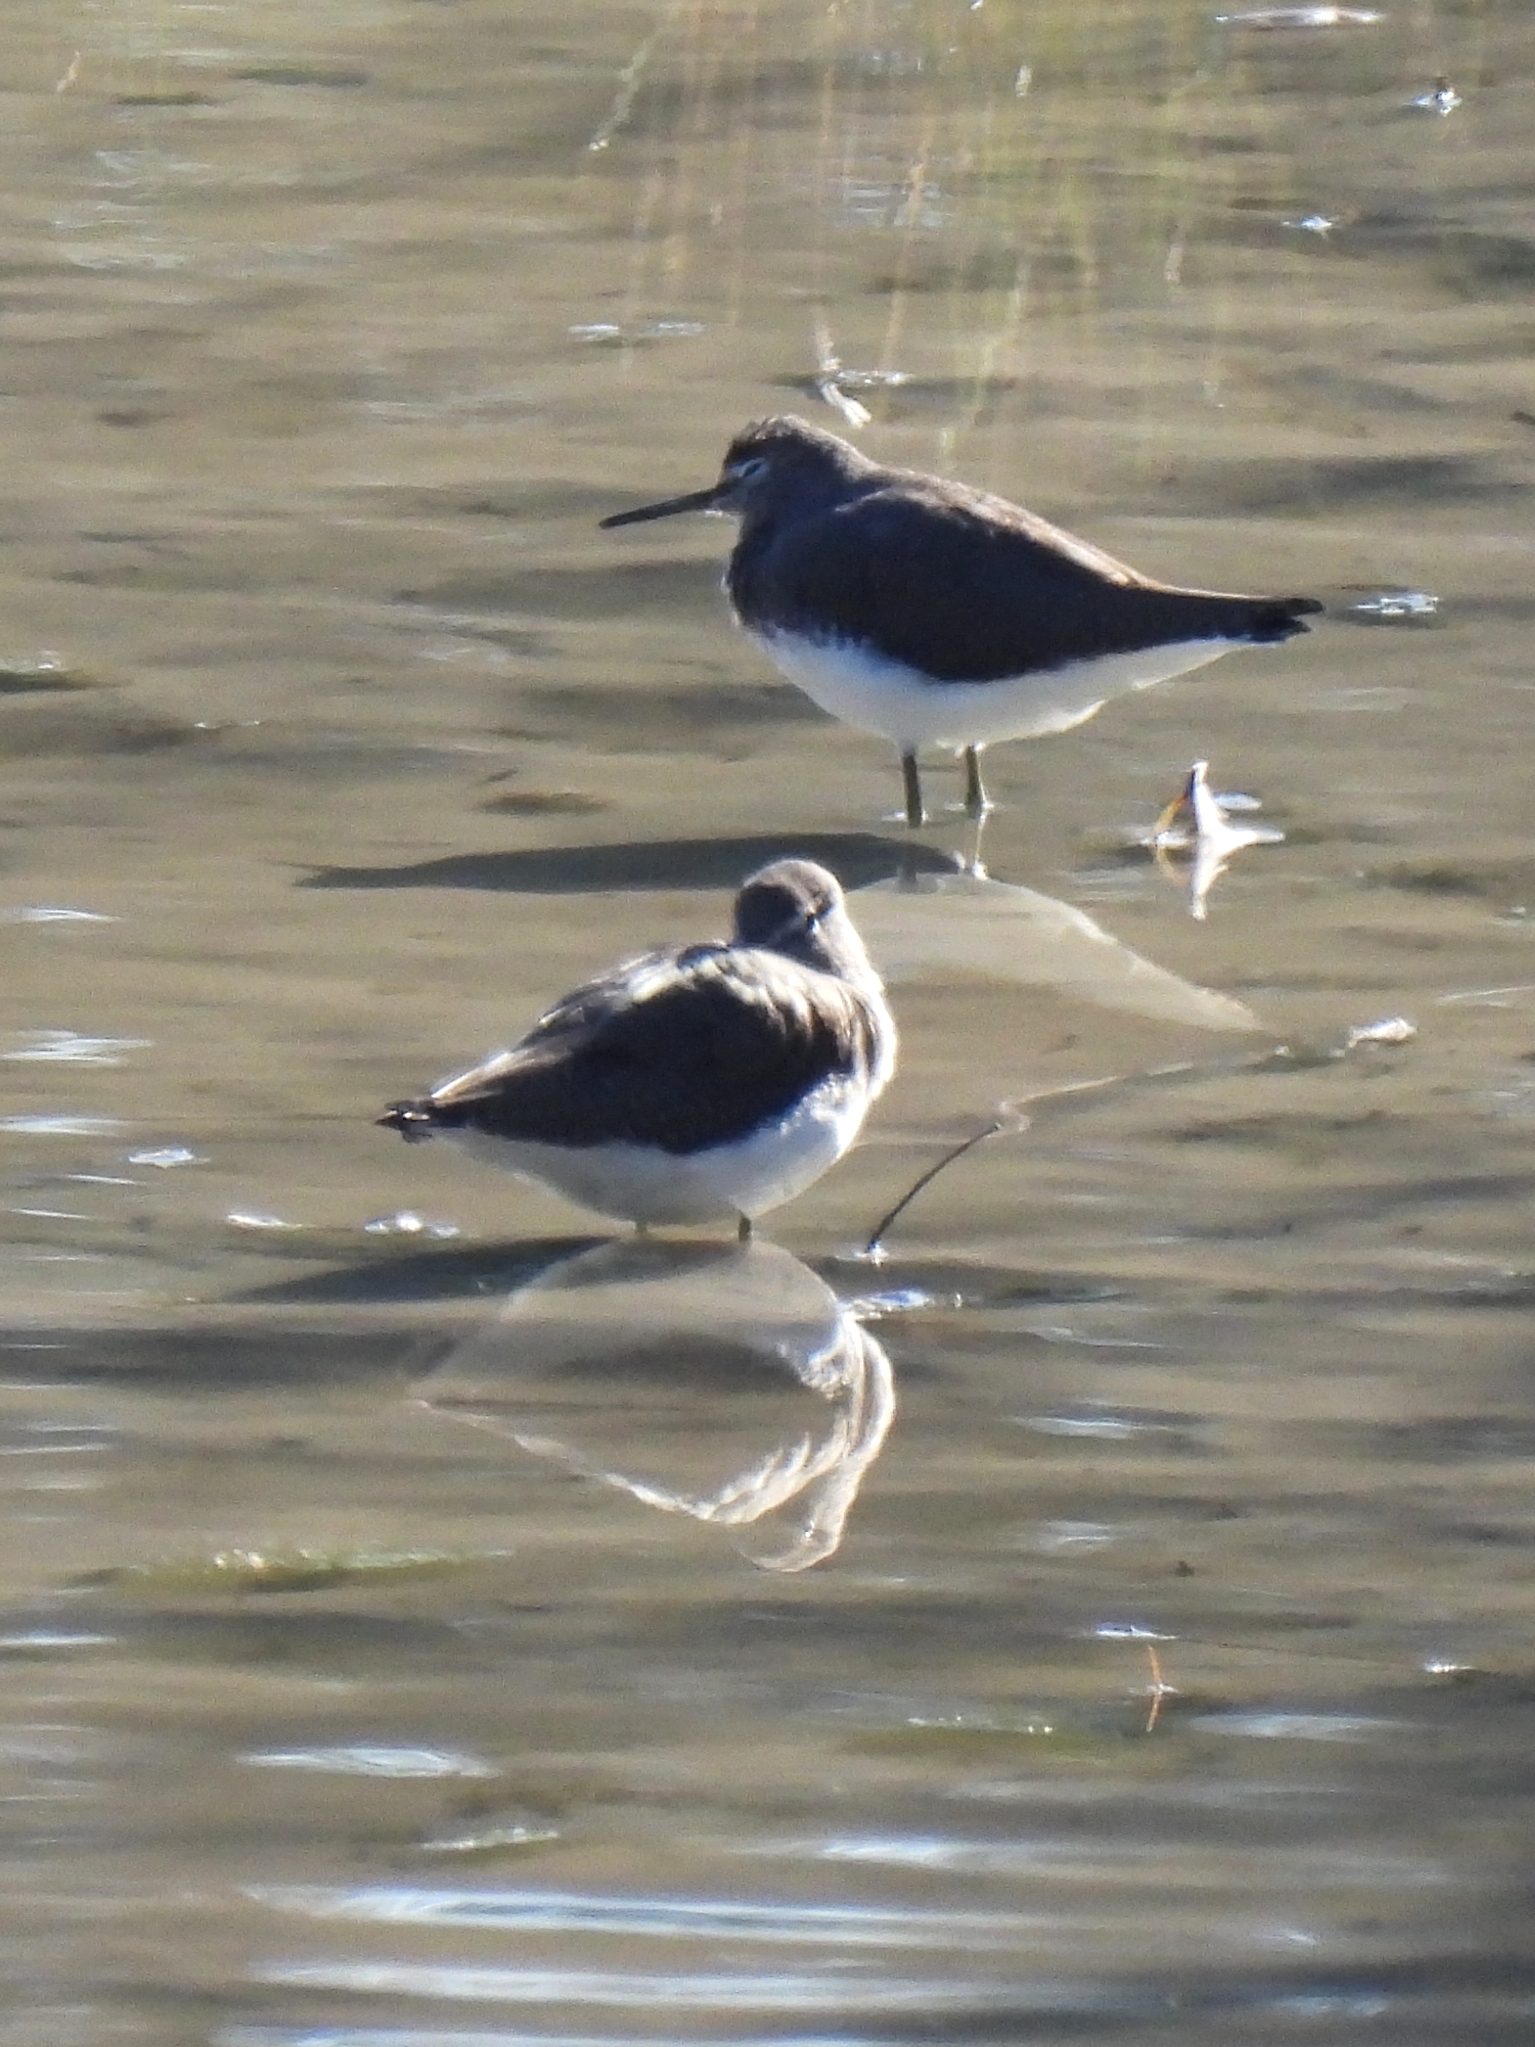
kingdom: Animalia
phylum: Chordata
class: Aves
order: Charadriiformes
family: Scolopacidae
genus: Tringa
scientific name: Tringa ochropus
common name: Green sandpiper
